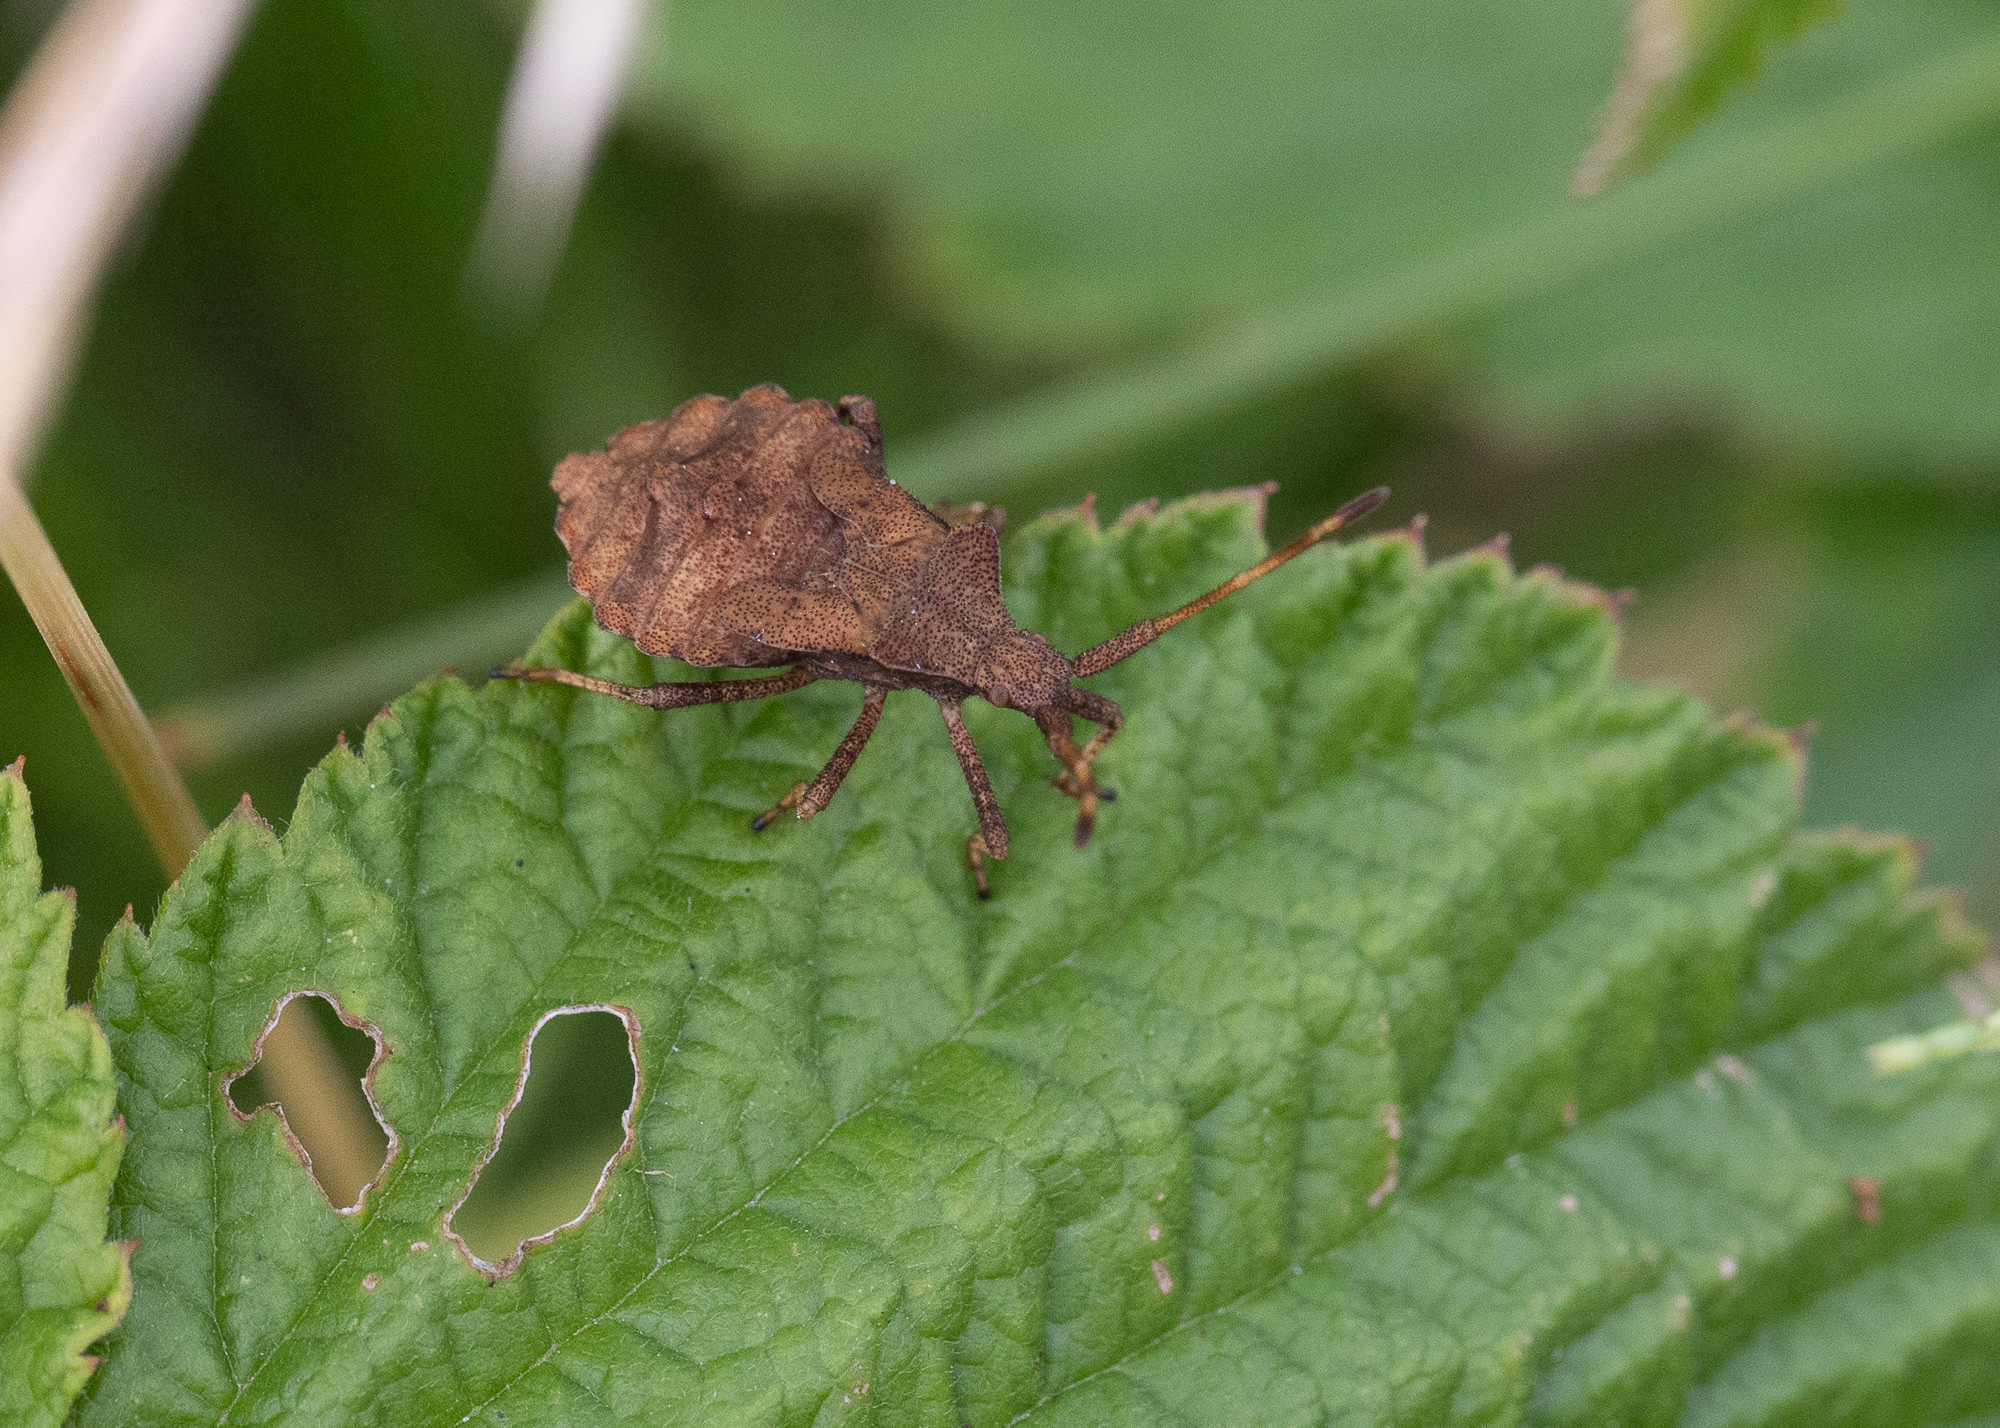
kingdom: Animalia
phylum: Arthropoda
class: Insecta
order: Hemiptera
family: Coreidae
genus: Coreus
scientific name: Coreus marginatus
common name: Dock bug
